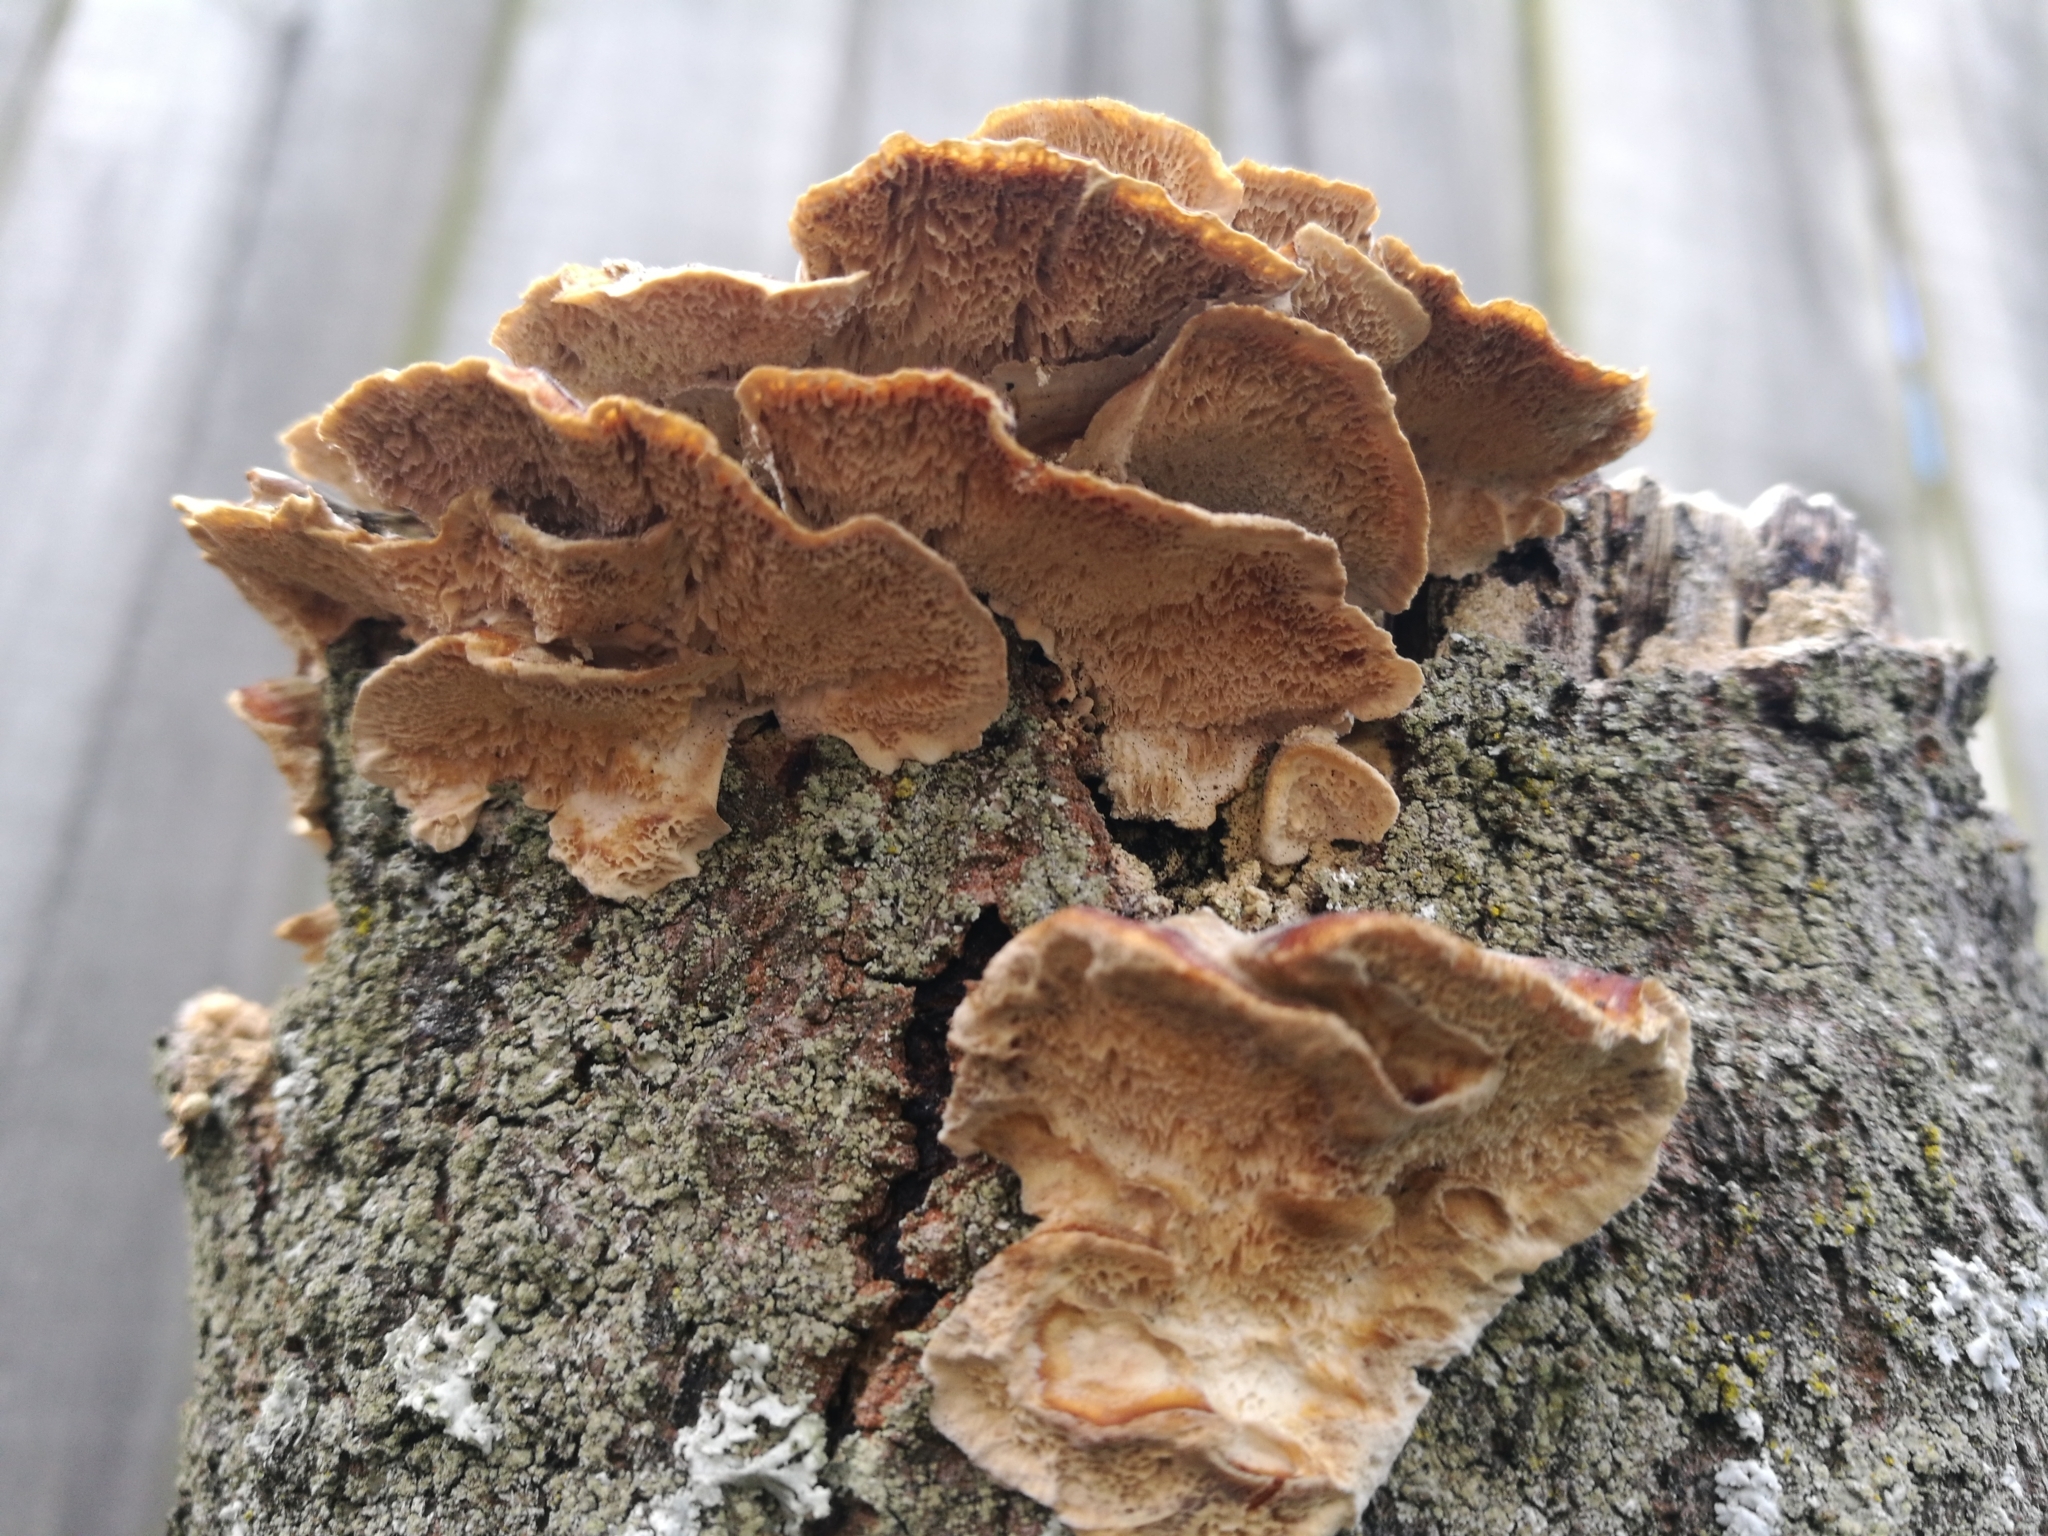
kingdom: Fungi
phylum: Basidiomycota
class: Agaricomycetes
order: Polyporales
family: Polyporaceae
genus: Trametes
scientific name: Trametes versicolor
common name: Turkeytail
